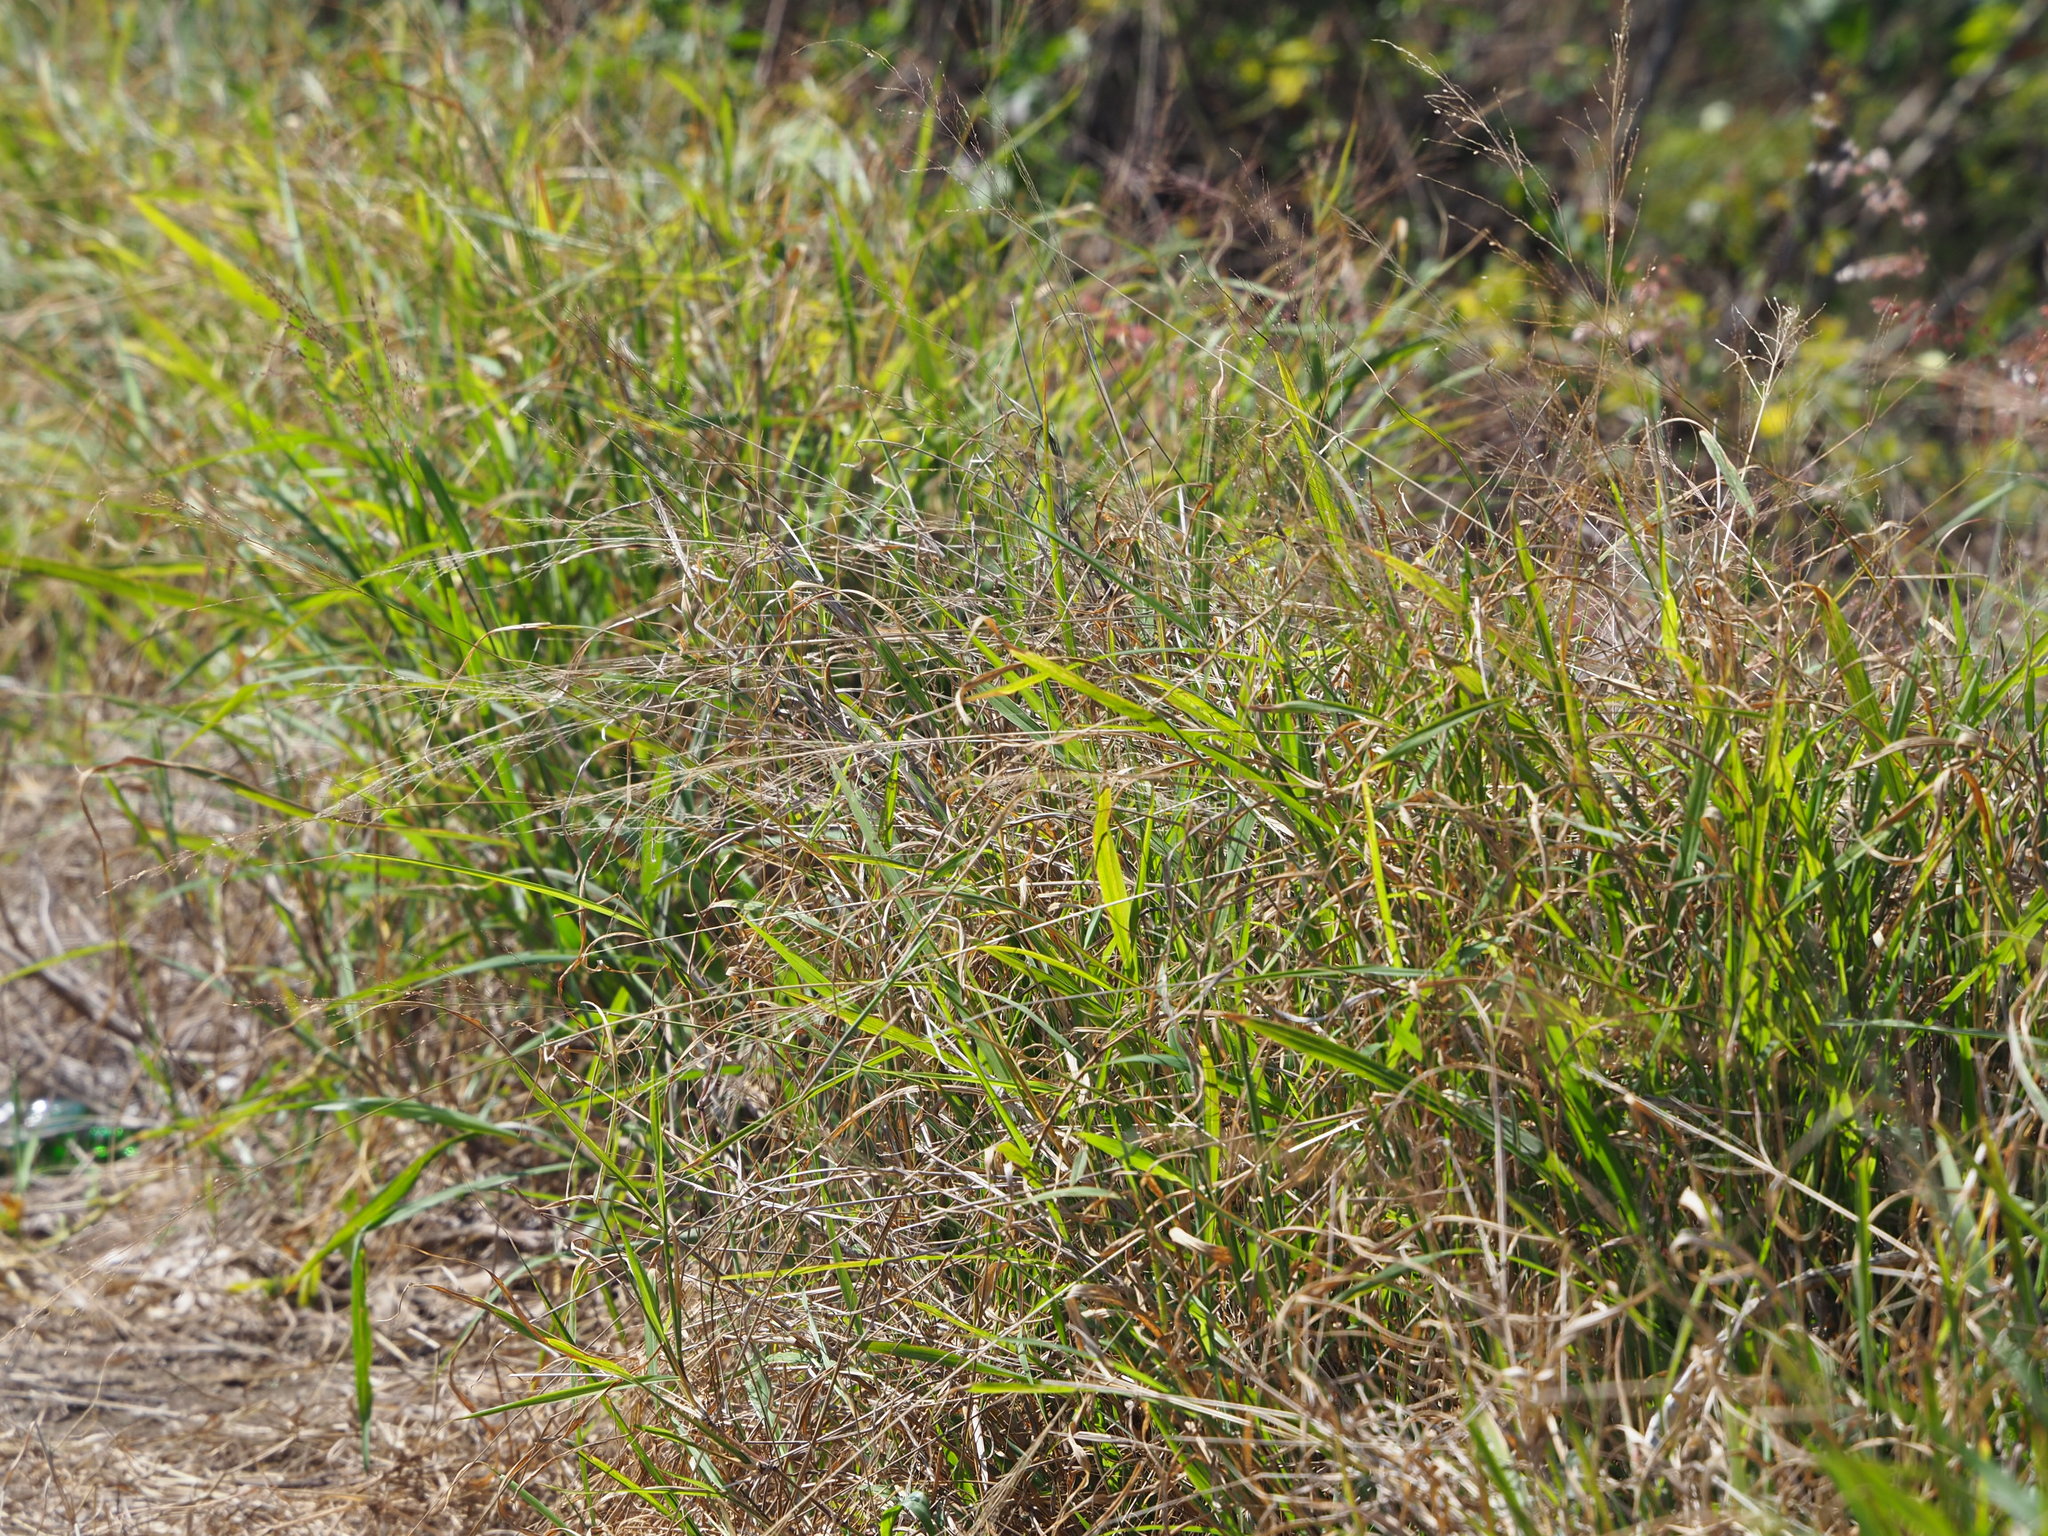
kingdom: Plantae
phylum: Tracheophyta
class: Liliopsida
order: Poales
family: Poaceae
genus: Megathyrsus
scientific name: Megathyrsus maximus
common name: Guineagrass
